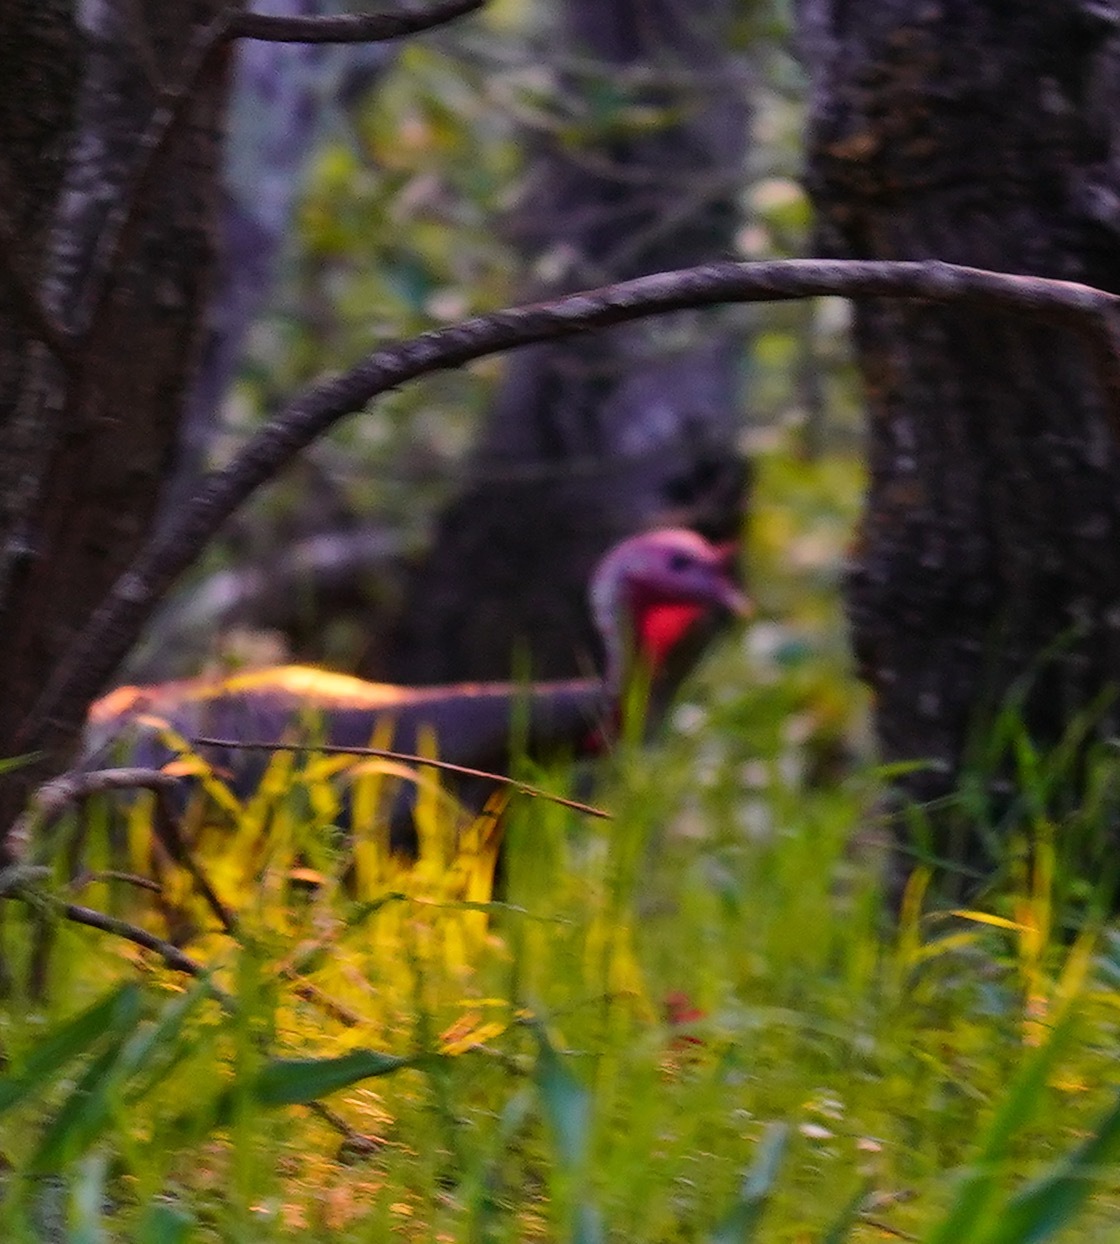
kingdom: Animalia
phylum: Chordata
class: Aves
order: Galliformes
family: Phasianidae
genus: Meleagris
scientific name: Meleagris gallopavo
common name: Wild turkey
